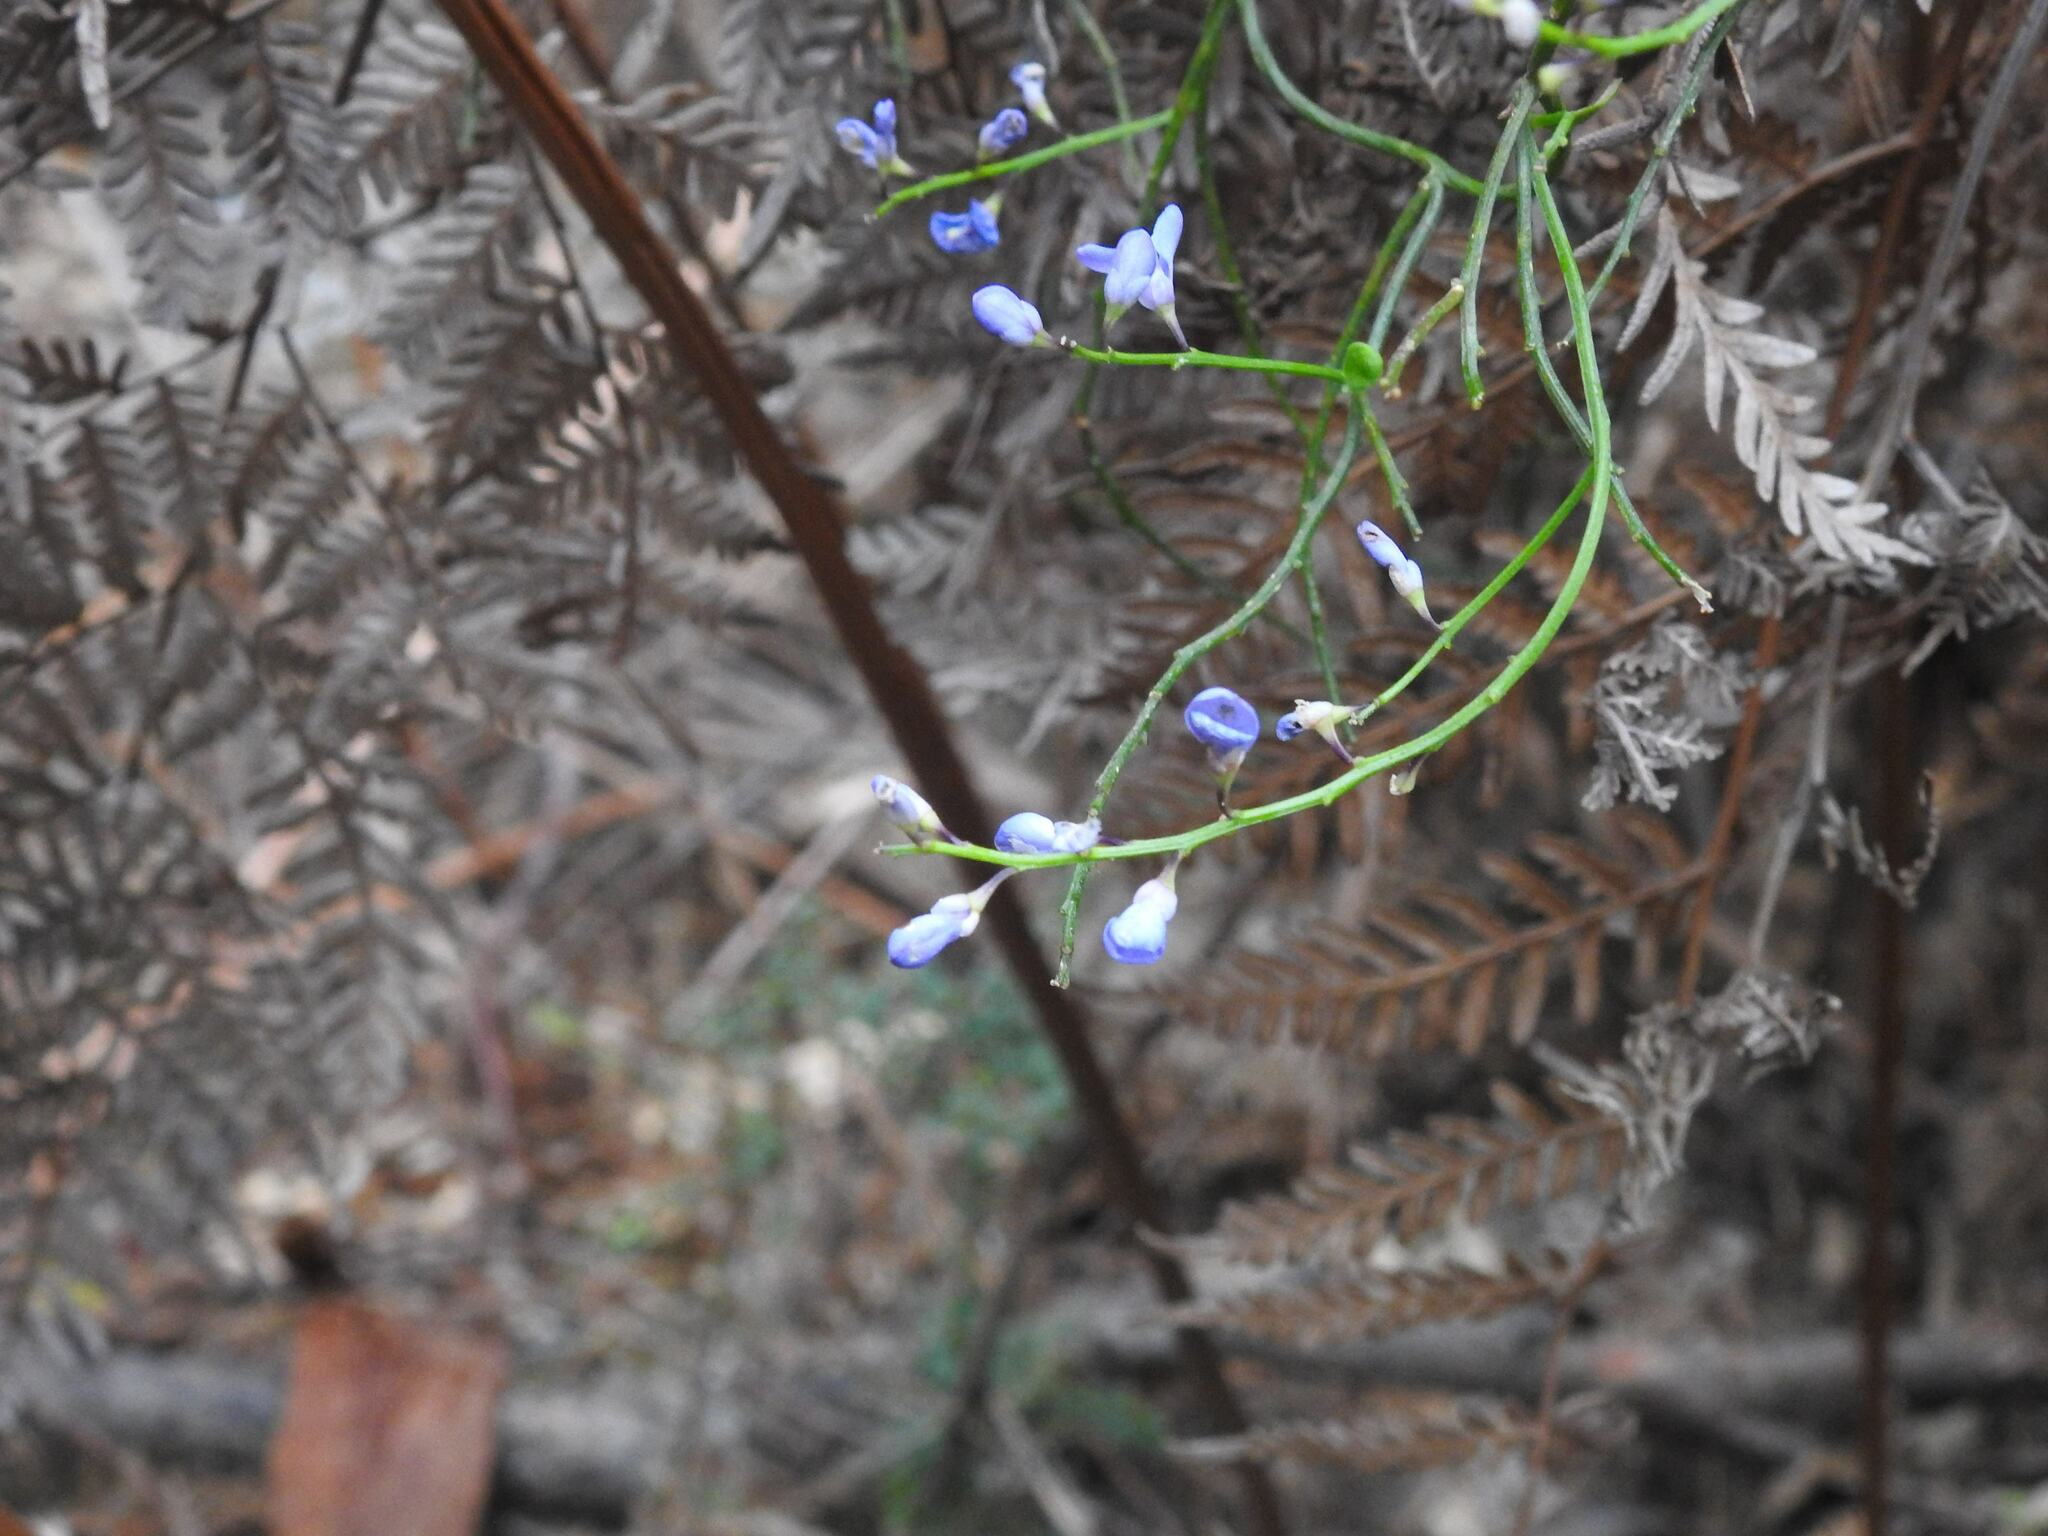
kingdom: Plantae
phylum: Tracheophyta
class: Magnoliopsida
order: Fabales
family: Polygalaceae
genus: Comesperma
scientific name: Comesperma volubile
